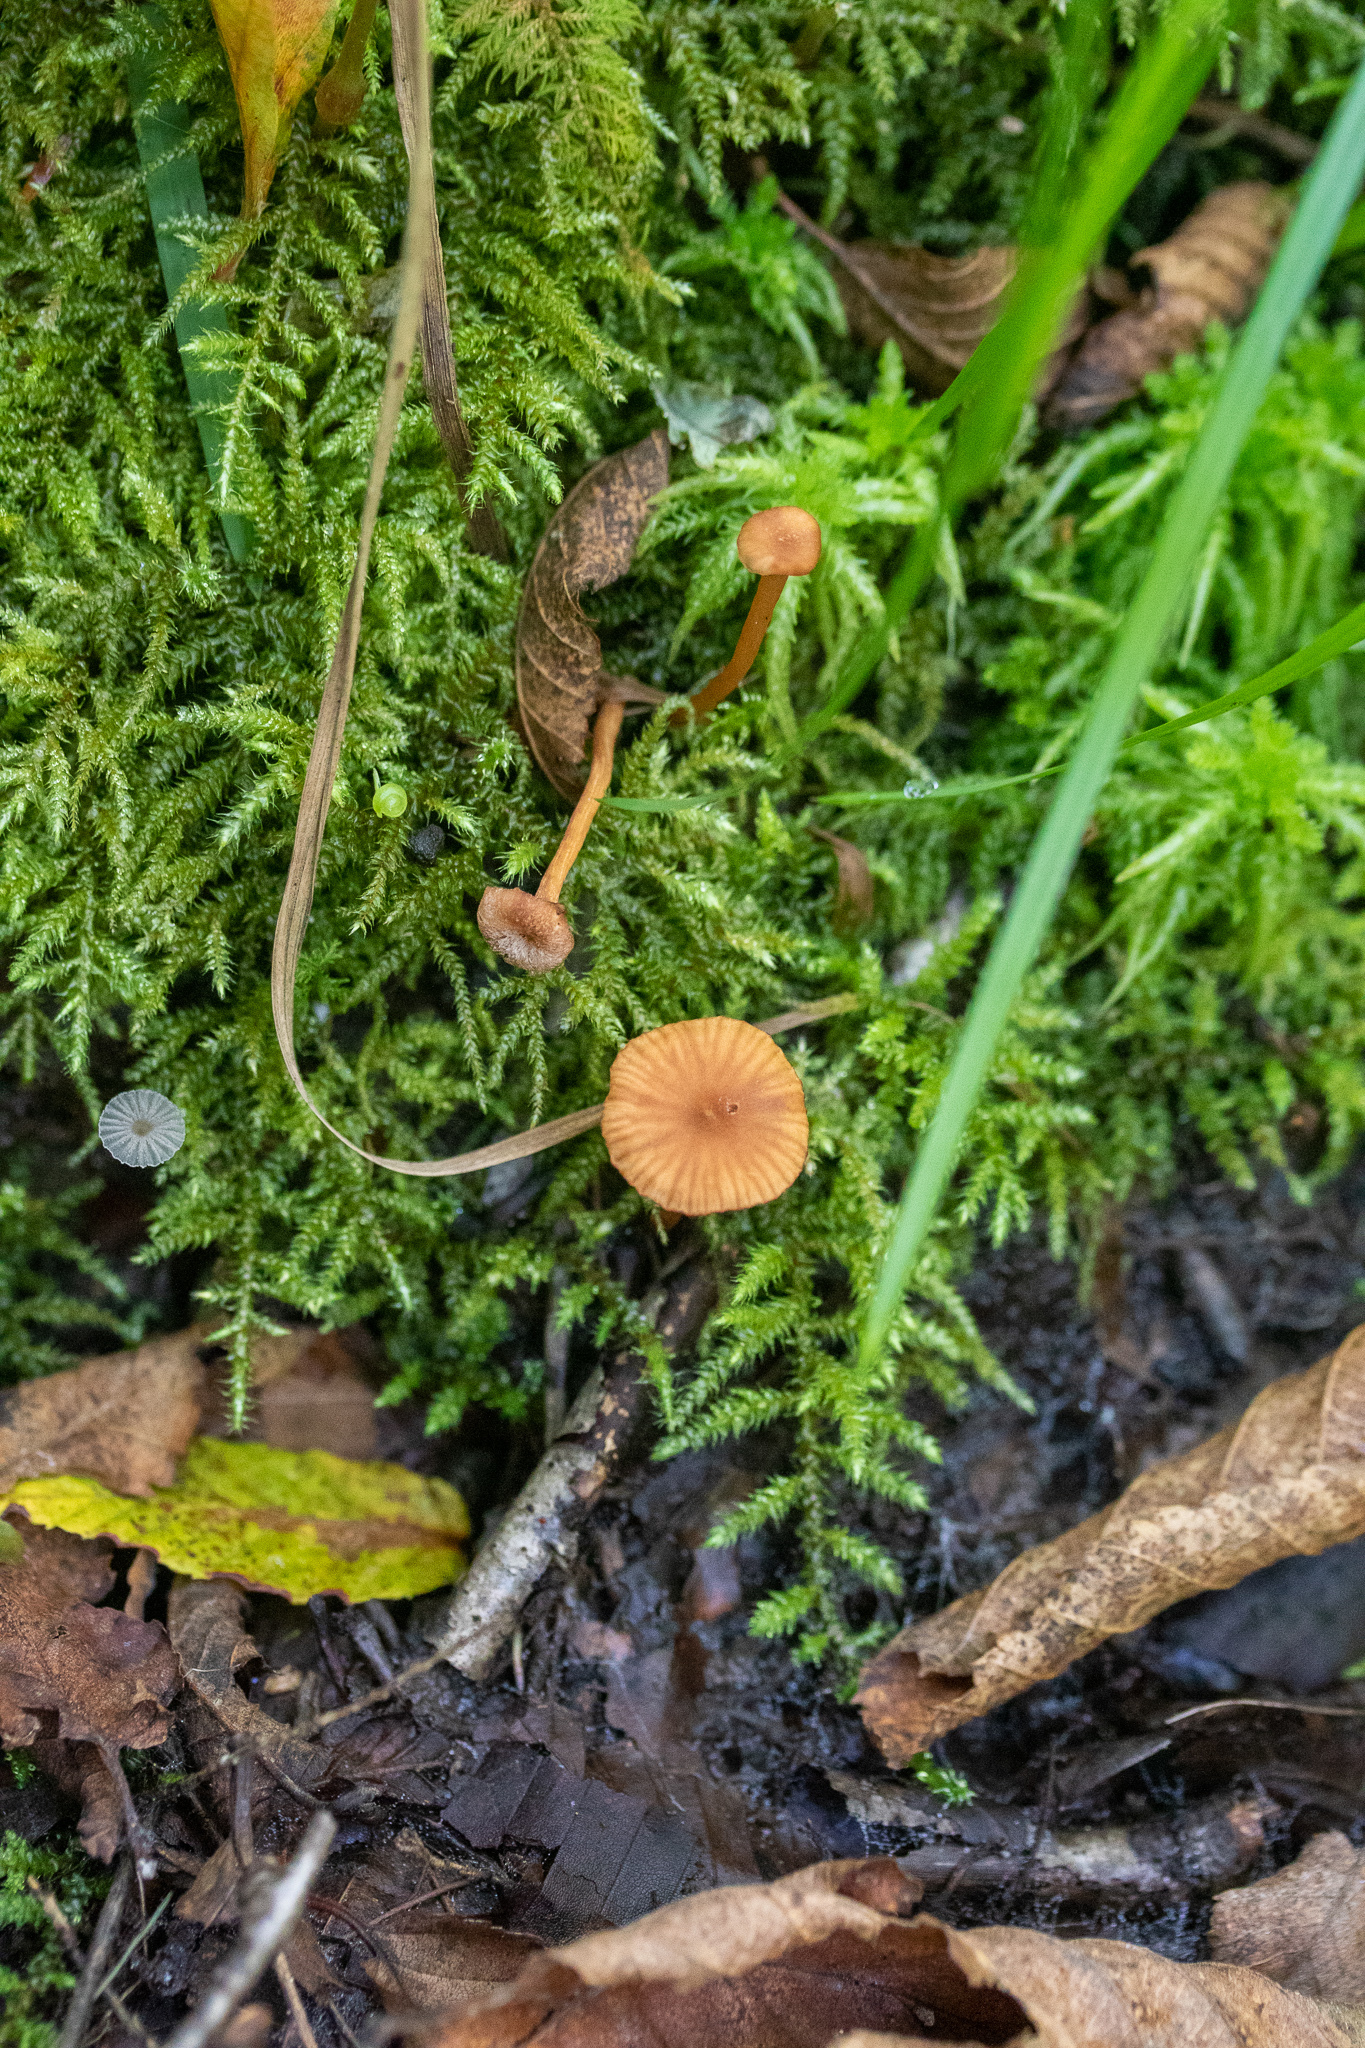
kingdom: Fungi
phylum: Basidiomycota
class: Agaricomycetes
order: Agaricales
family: Hydnangiaceae
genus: Laccaria
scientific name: Laccaria tortilis
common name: Twisted deceiver
